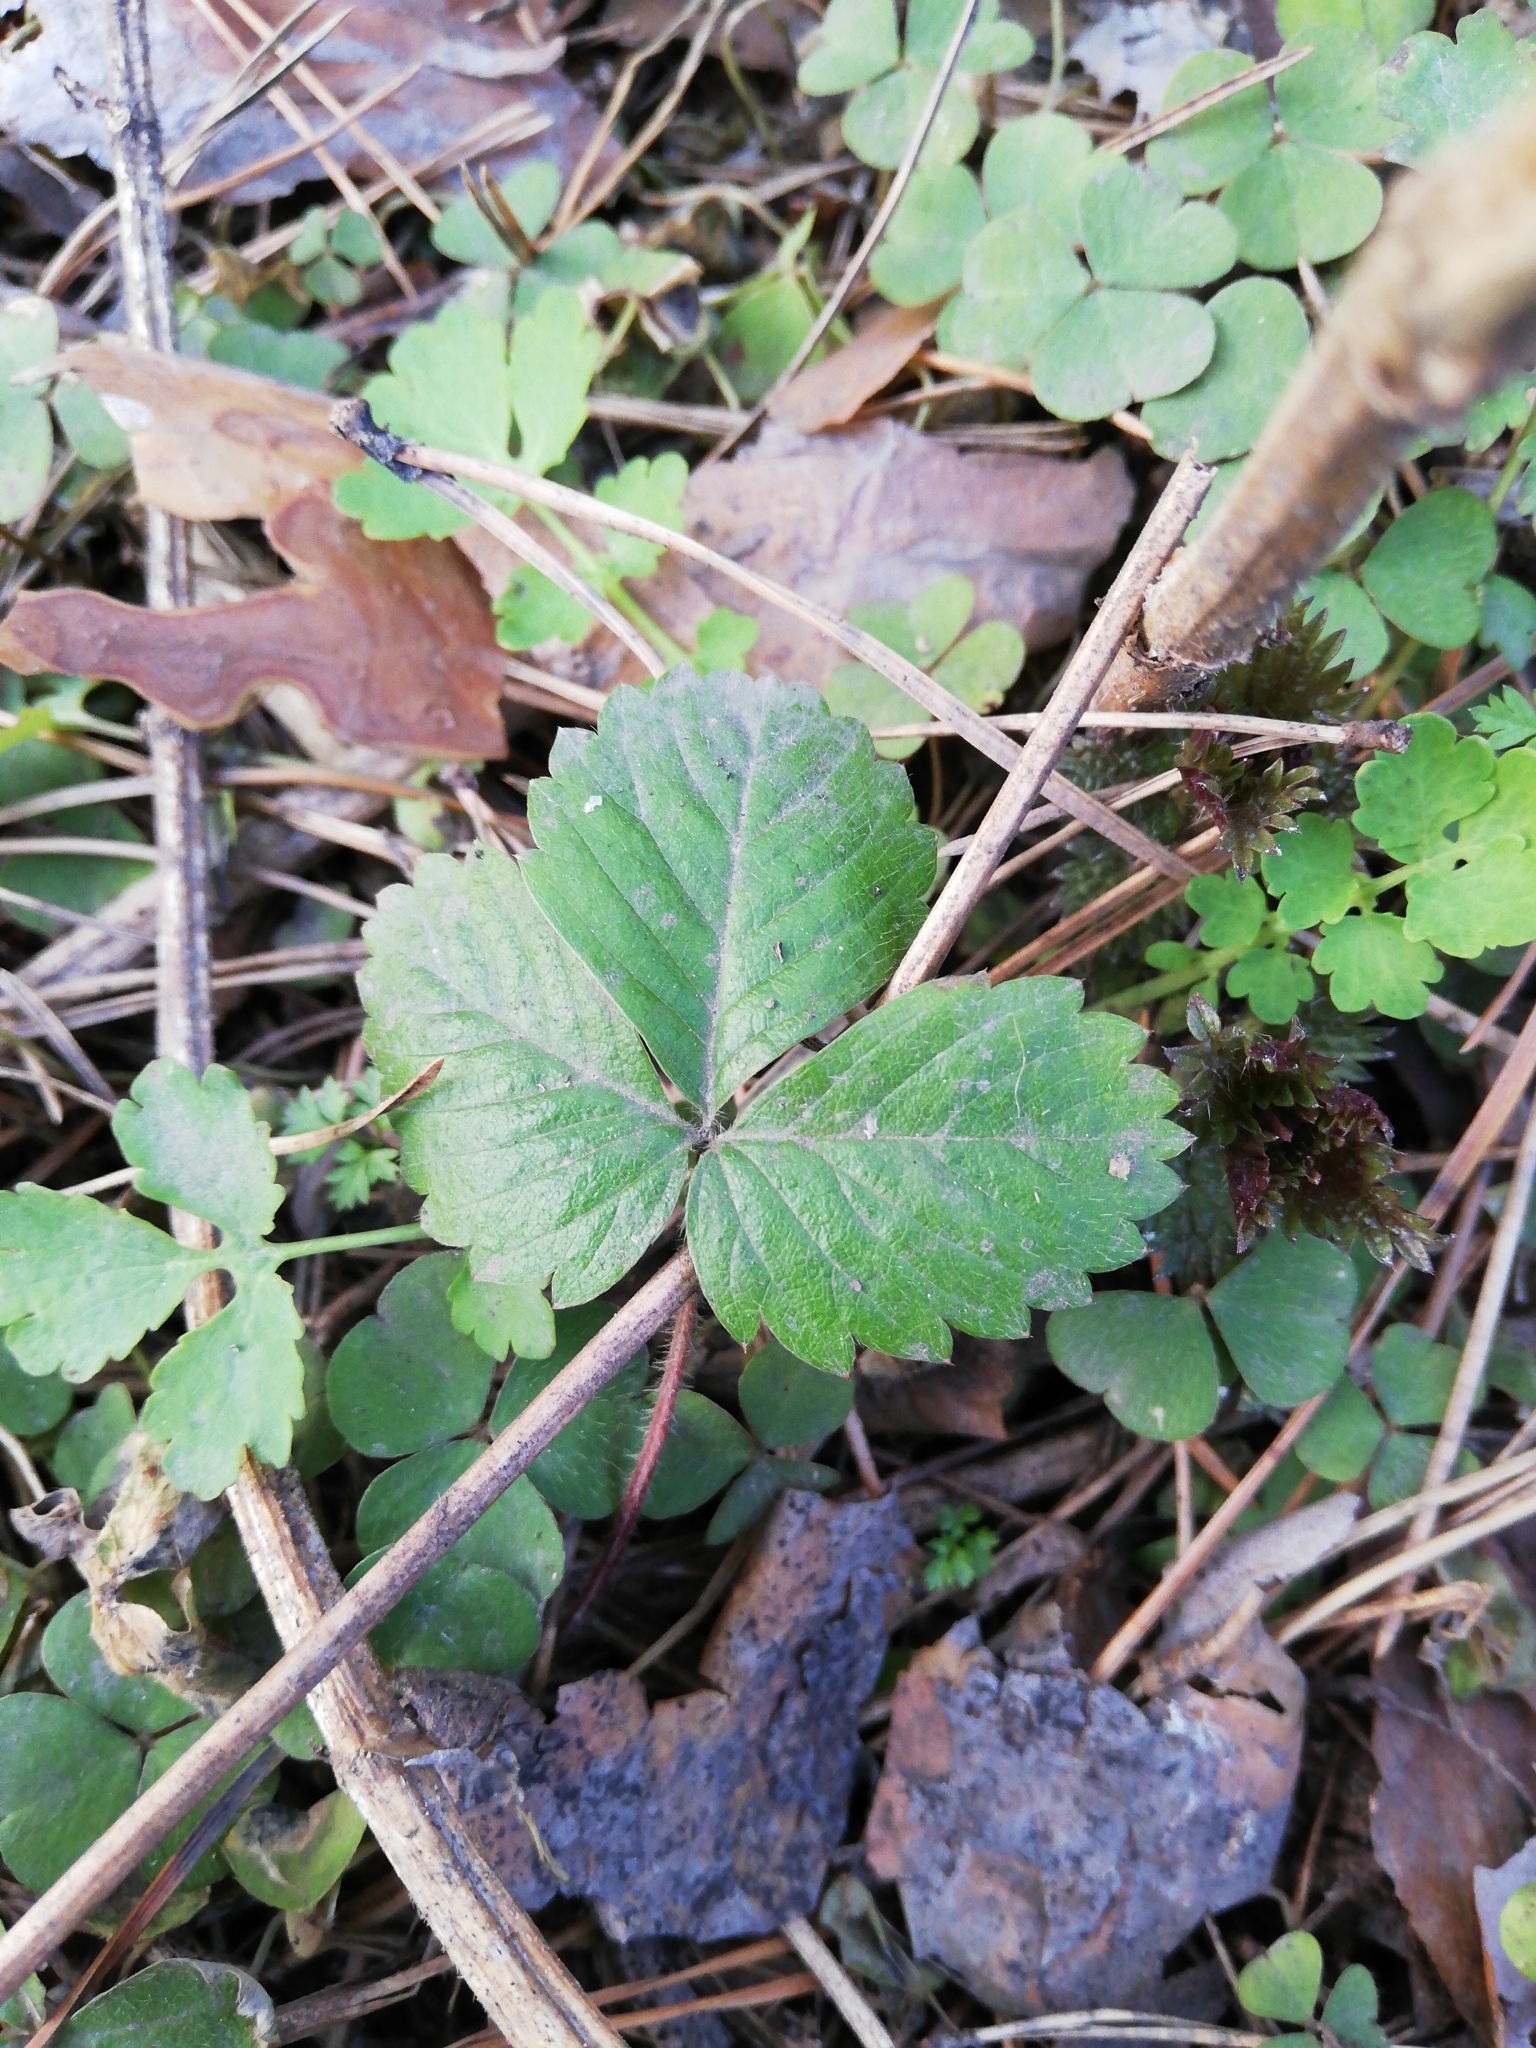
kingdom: Plantae
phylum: Tracheophyta
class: Magnoliopsida
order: Rosales
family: Rosaceae
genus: Fragaria
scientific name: Fragaria vesca
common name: Wild strawberry
